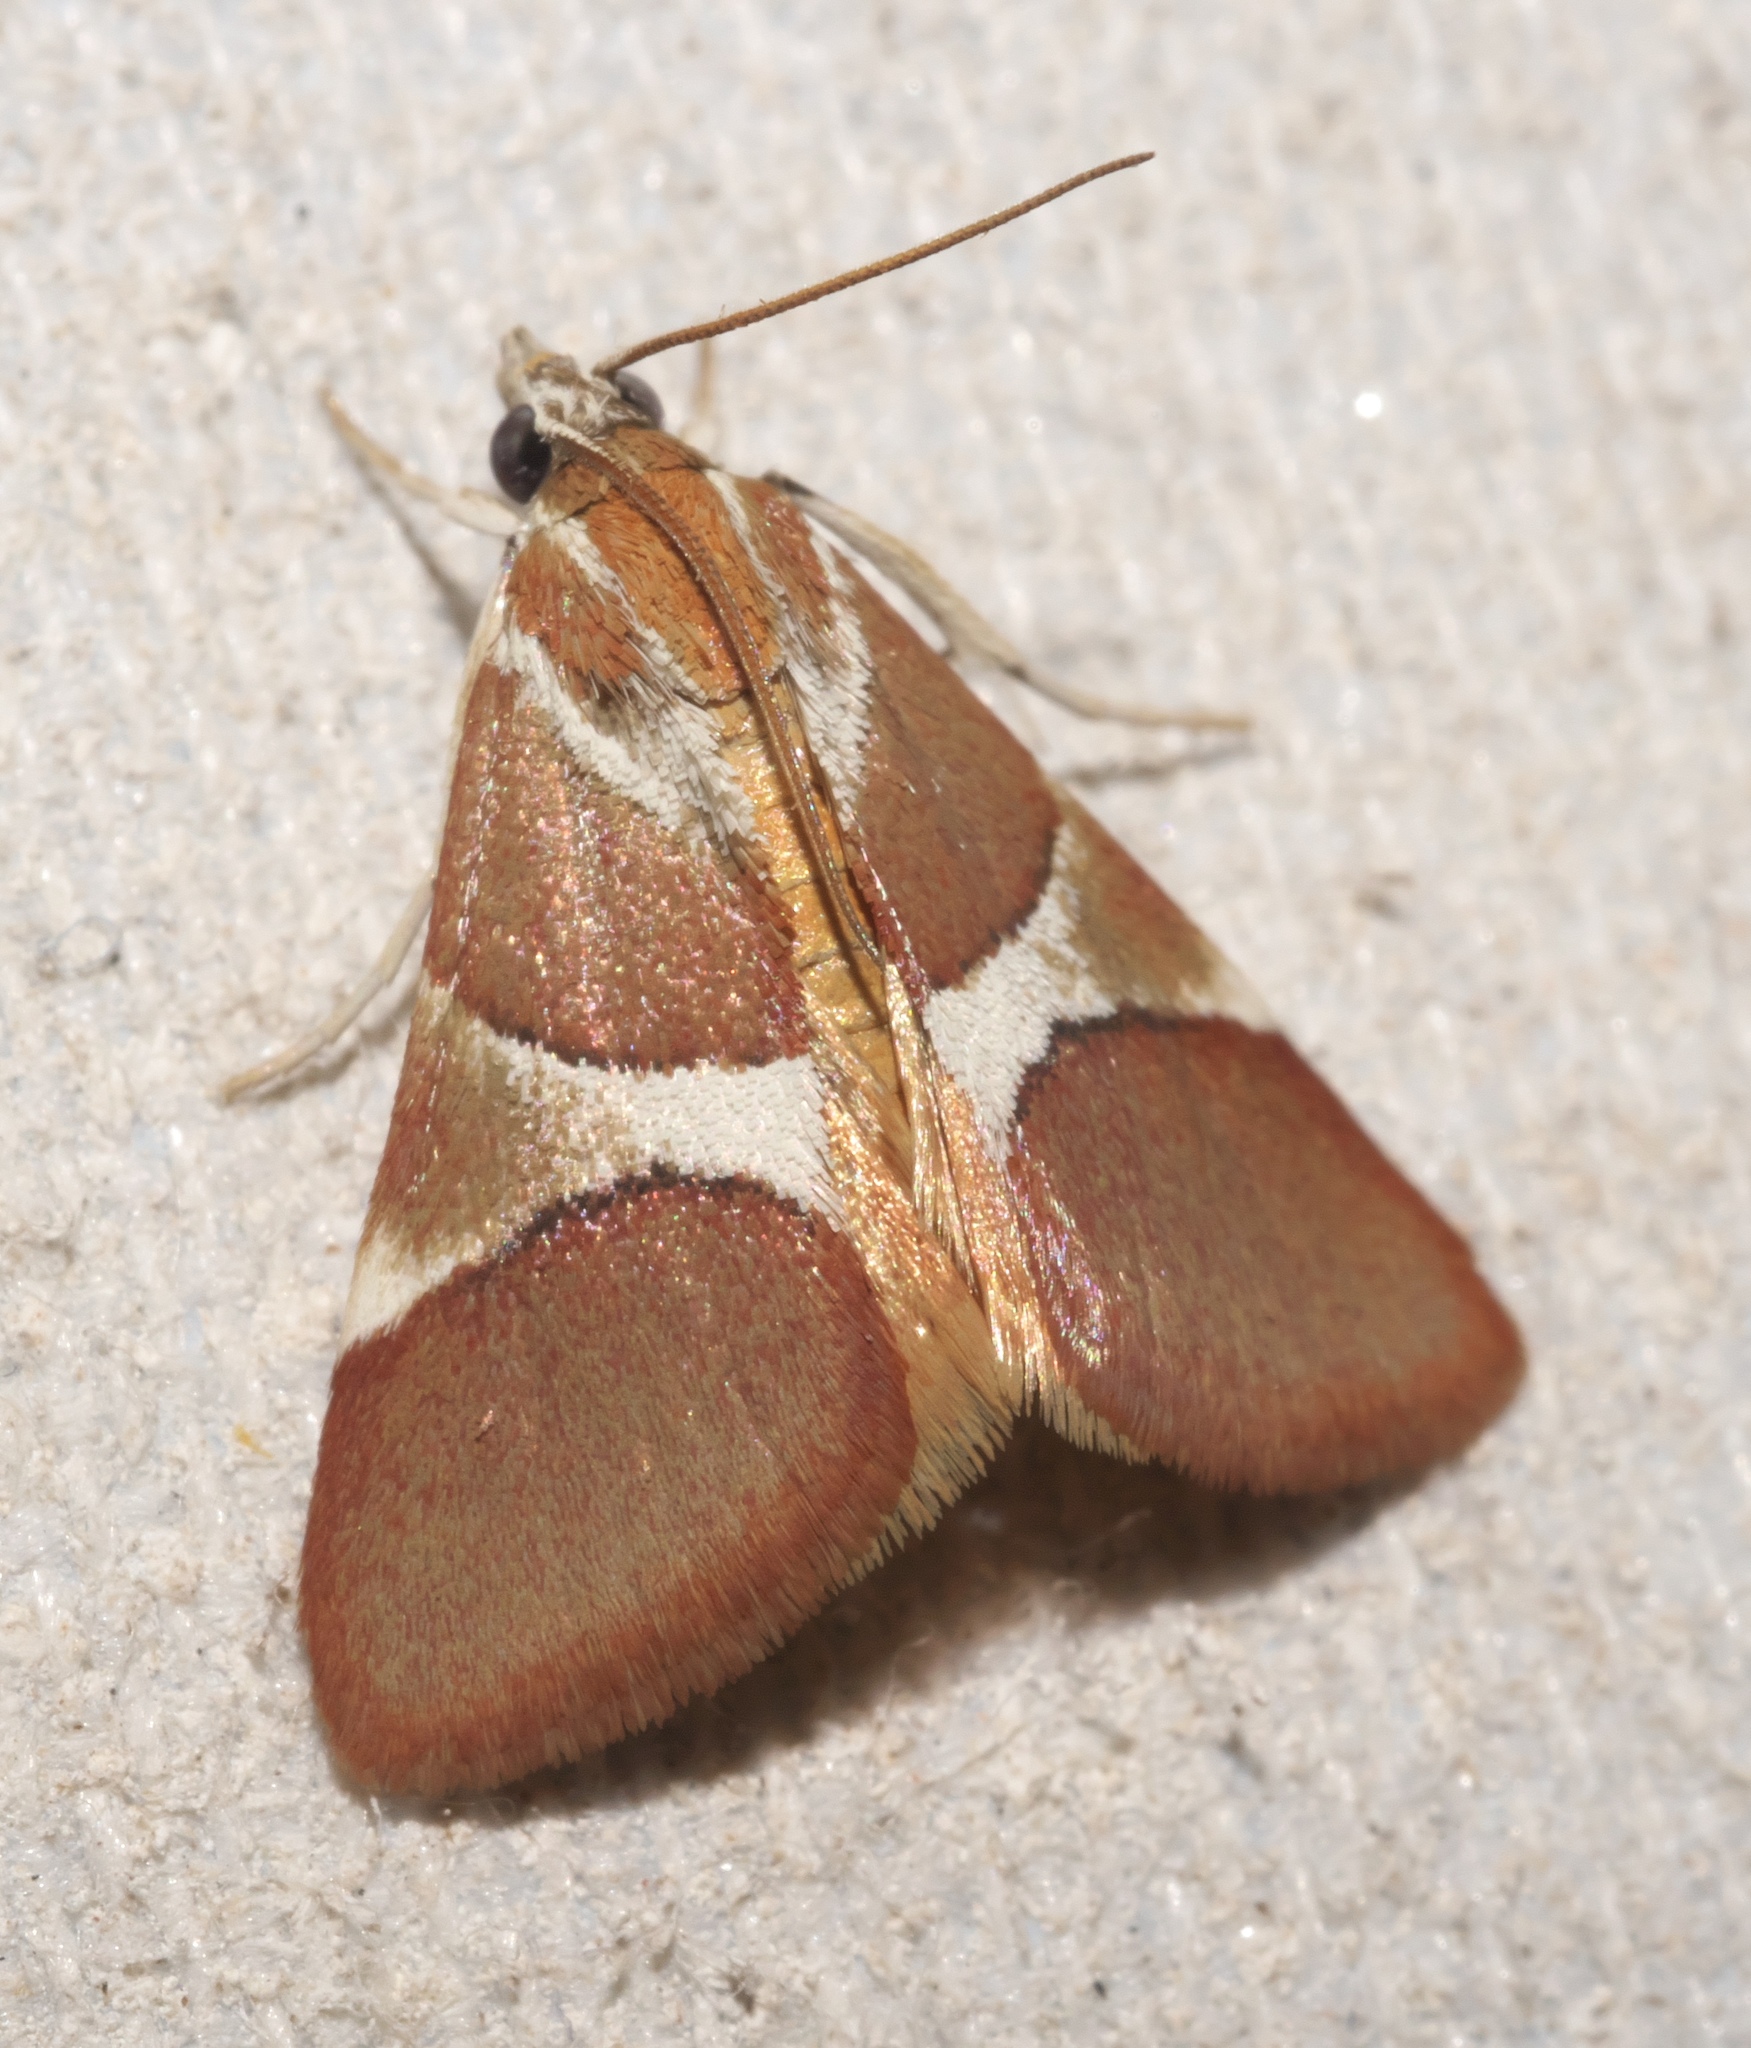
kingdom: Animalia
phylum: Arthropoda
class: Insecta
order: Lepidoptera
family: Crambidae
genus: Jativa
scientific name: Jativa castanealis
